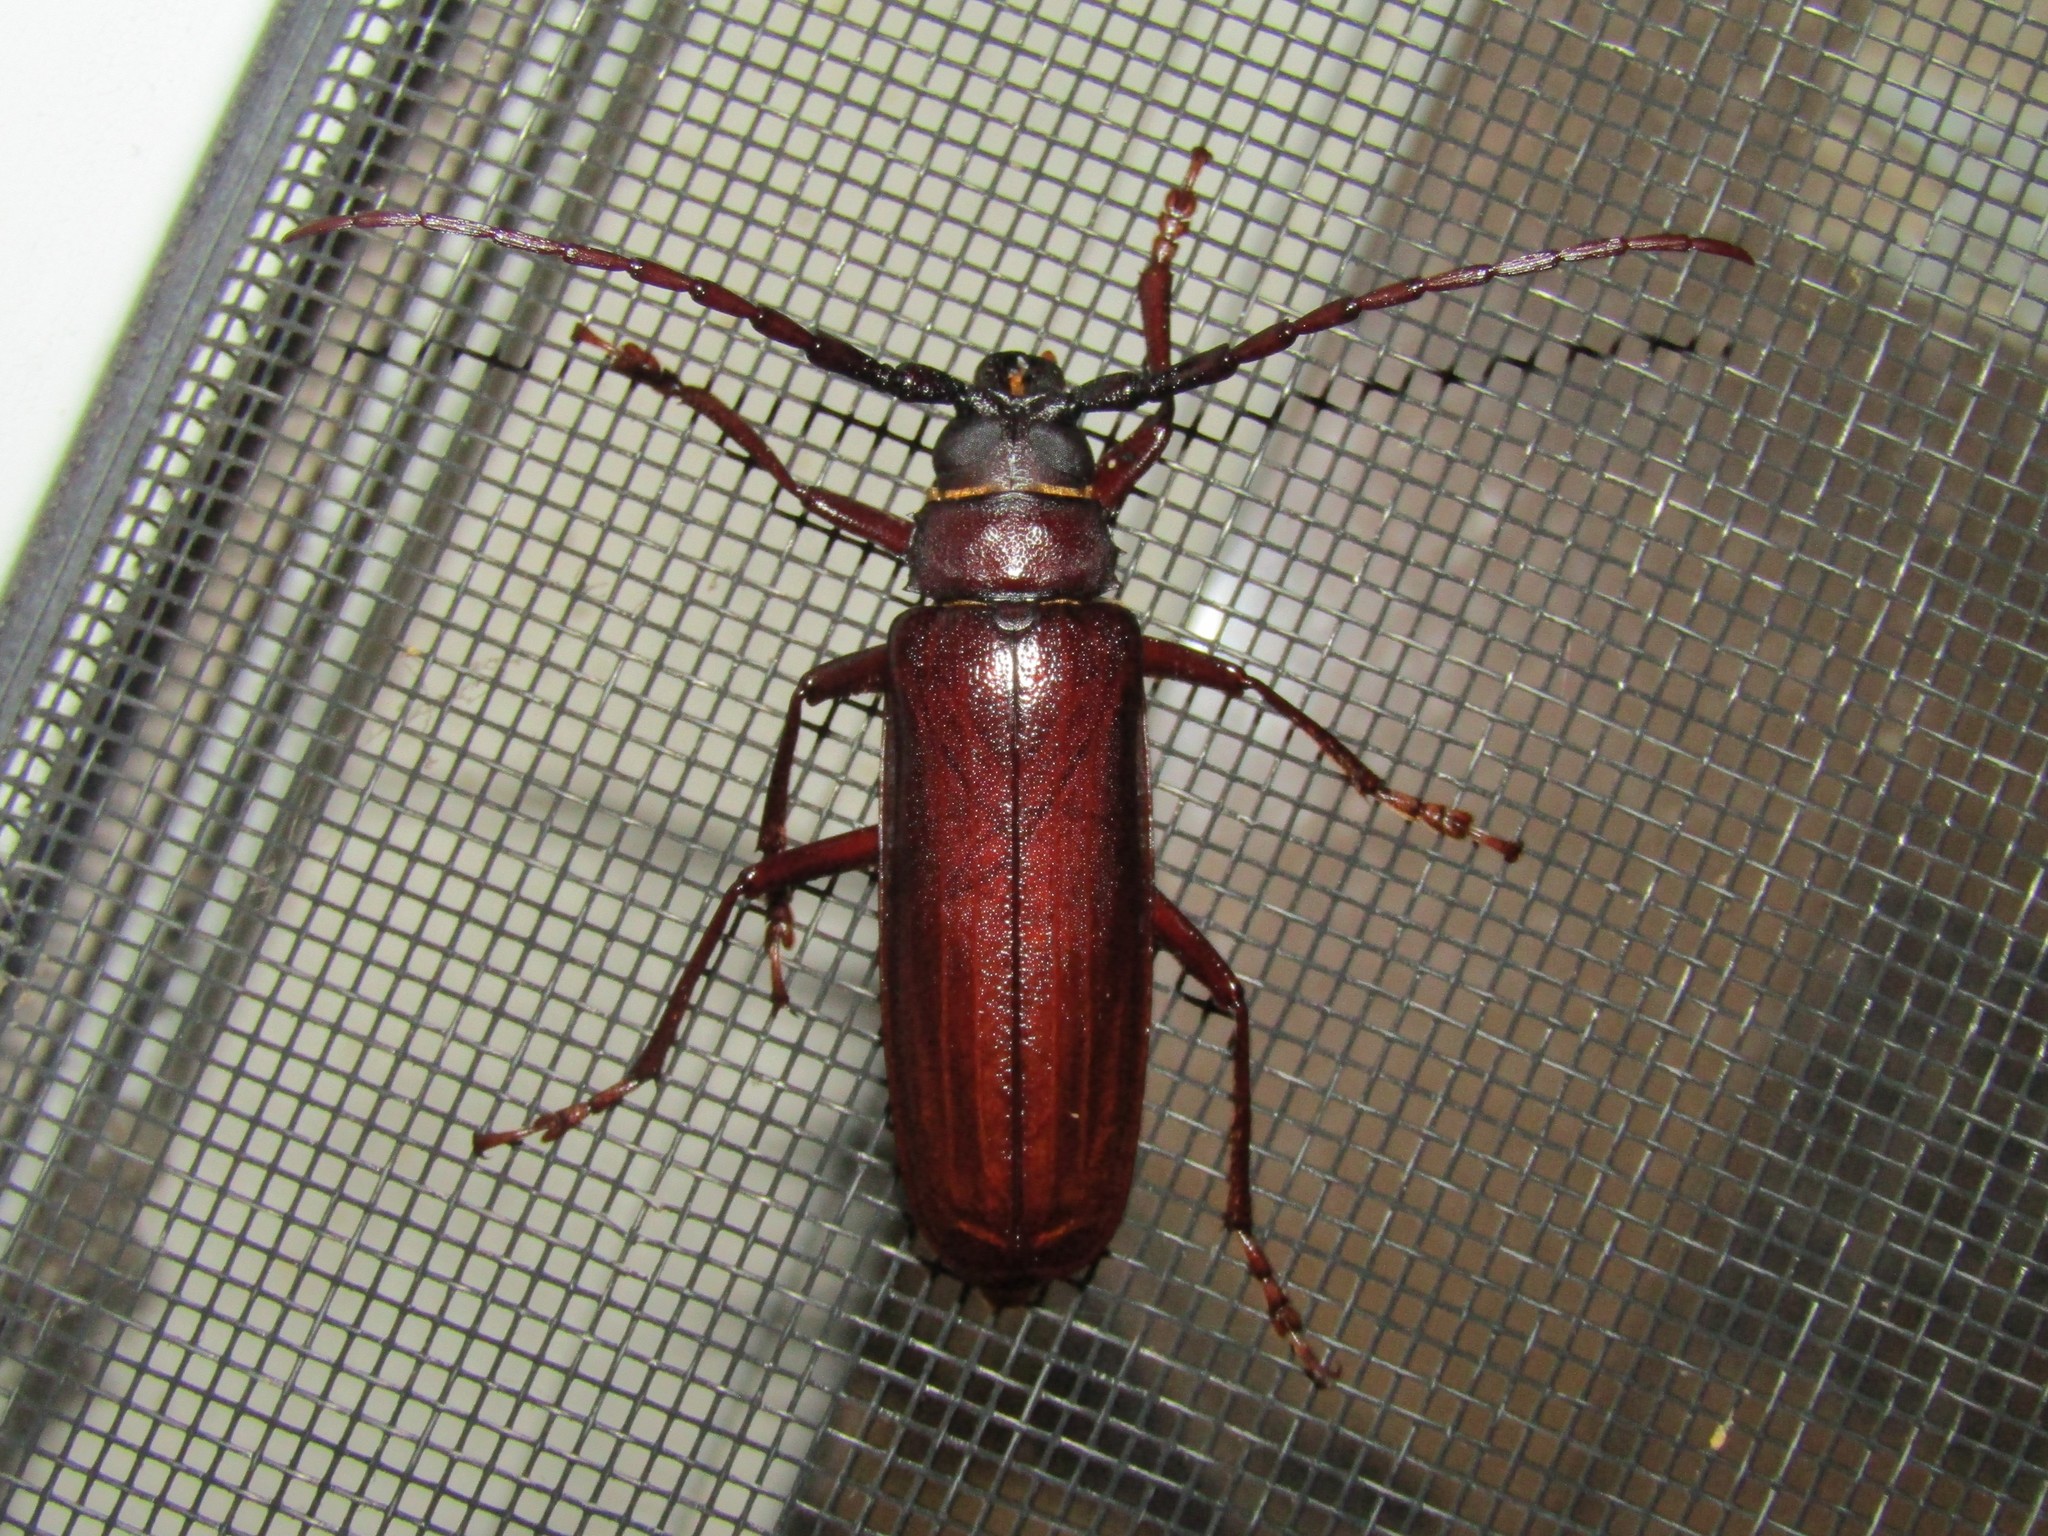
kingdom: Animalia
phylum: Arthropoda
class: Insecta
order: Coleoptera
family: Cerambycidae
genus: Orthosoma
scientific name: Orthosoma brunneum
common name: Brown prionid beetle
